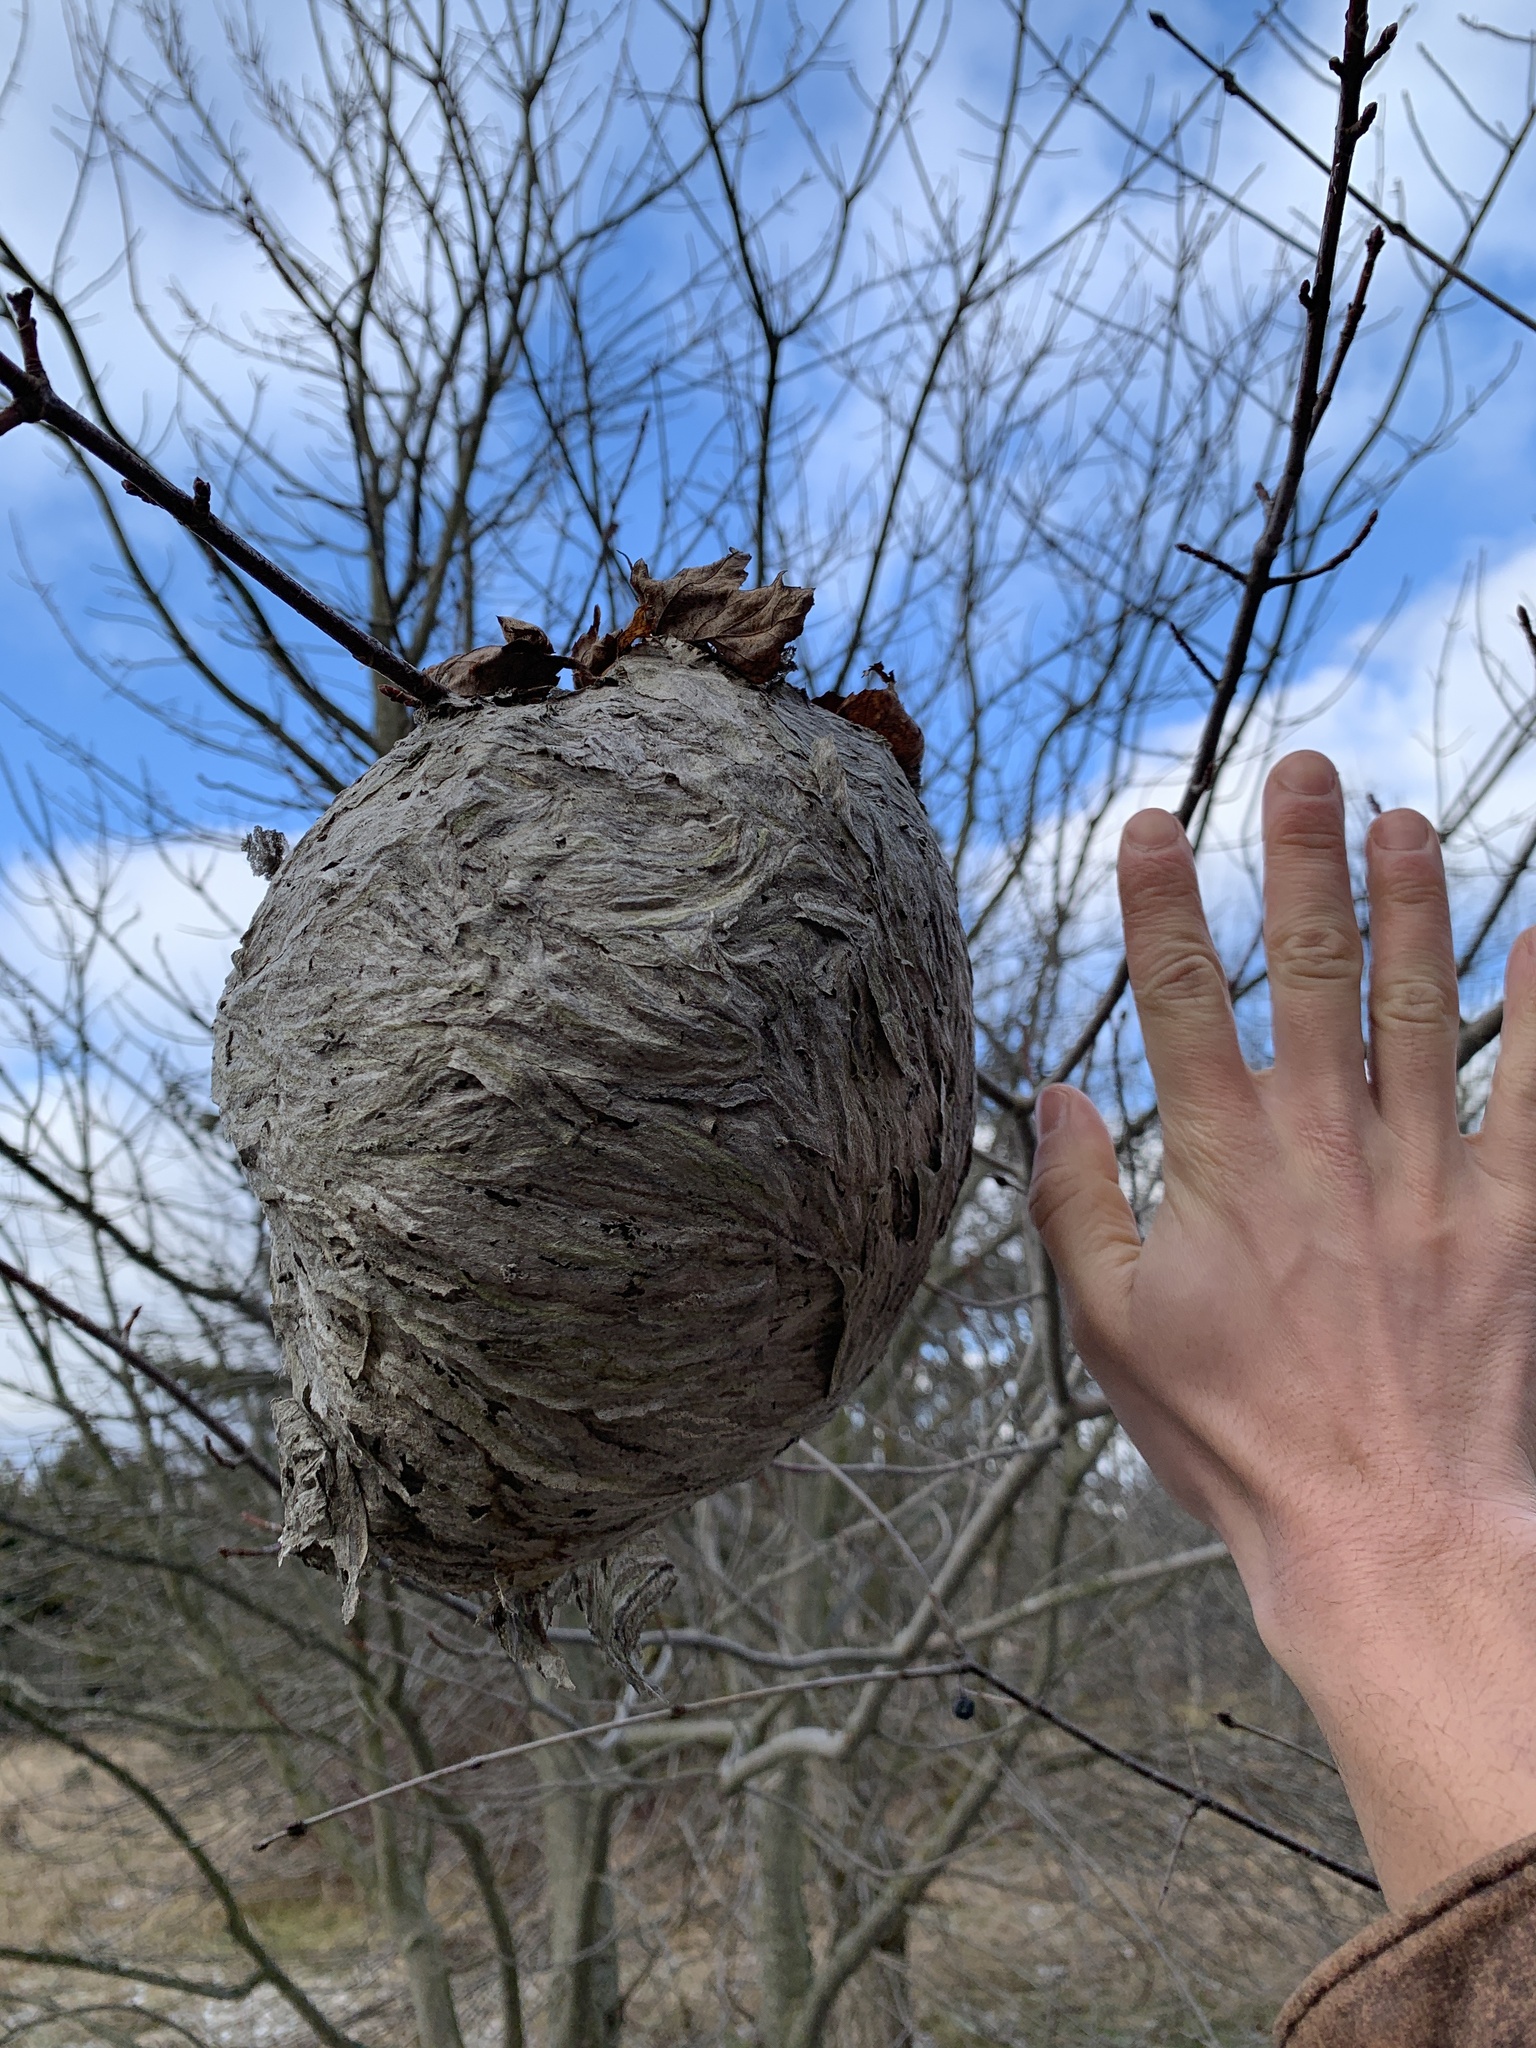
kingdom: Animalia
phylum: Arthropoda
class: Insecta
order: Hymenoptera
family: Vespidae
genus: Dolichovespula
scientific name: Dolichovespula
